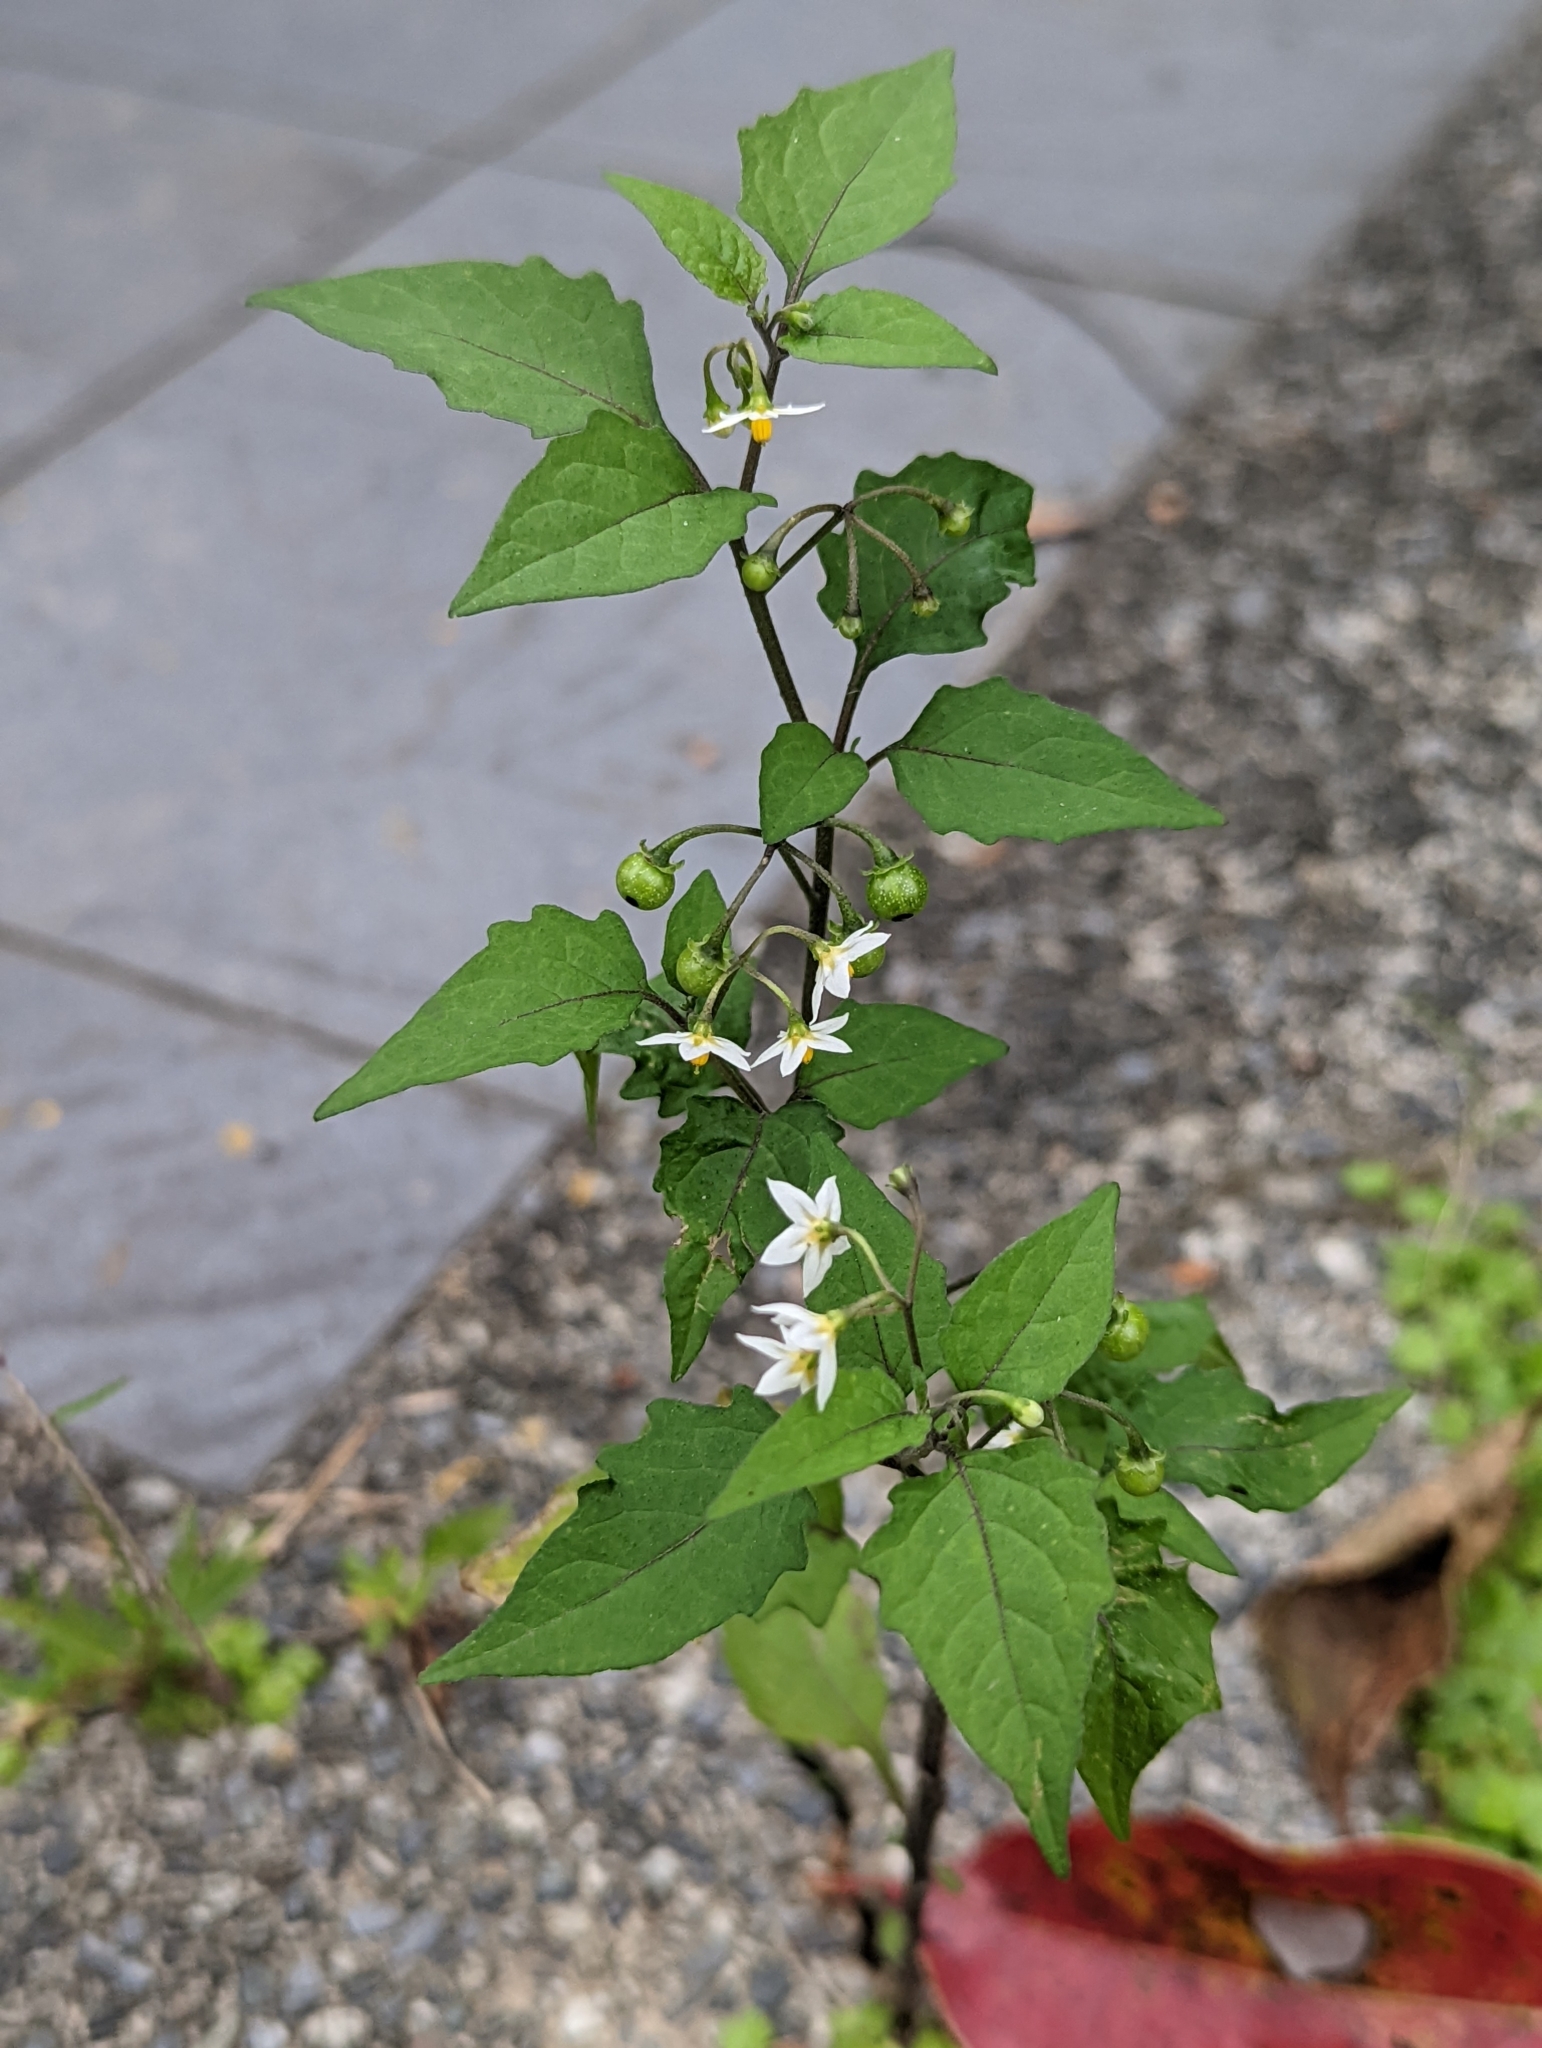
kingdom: Plantae
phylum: Tracheophyta
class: Magnoliopsida
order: Solanales
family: Solanaceae
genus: Solanum
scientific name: Solanum americanum
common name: American black nightshade
